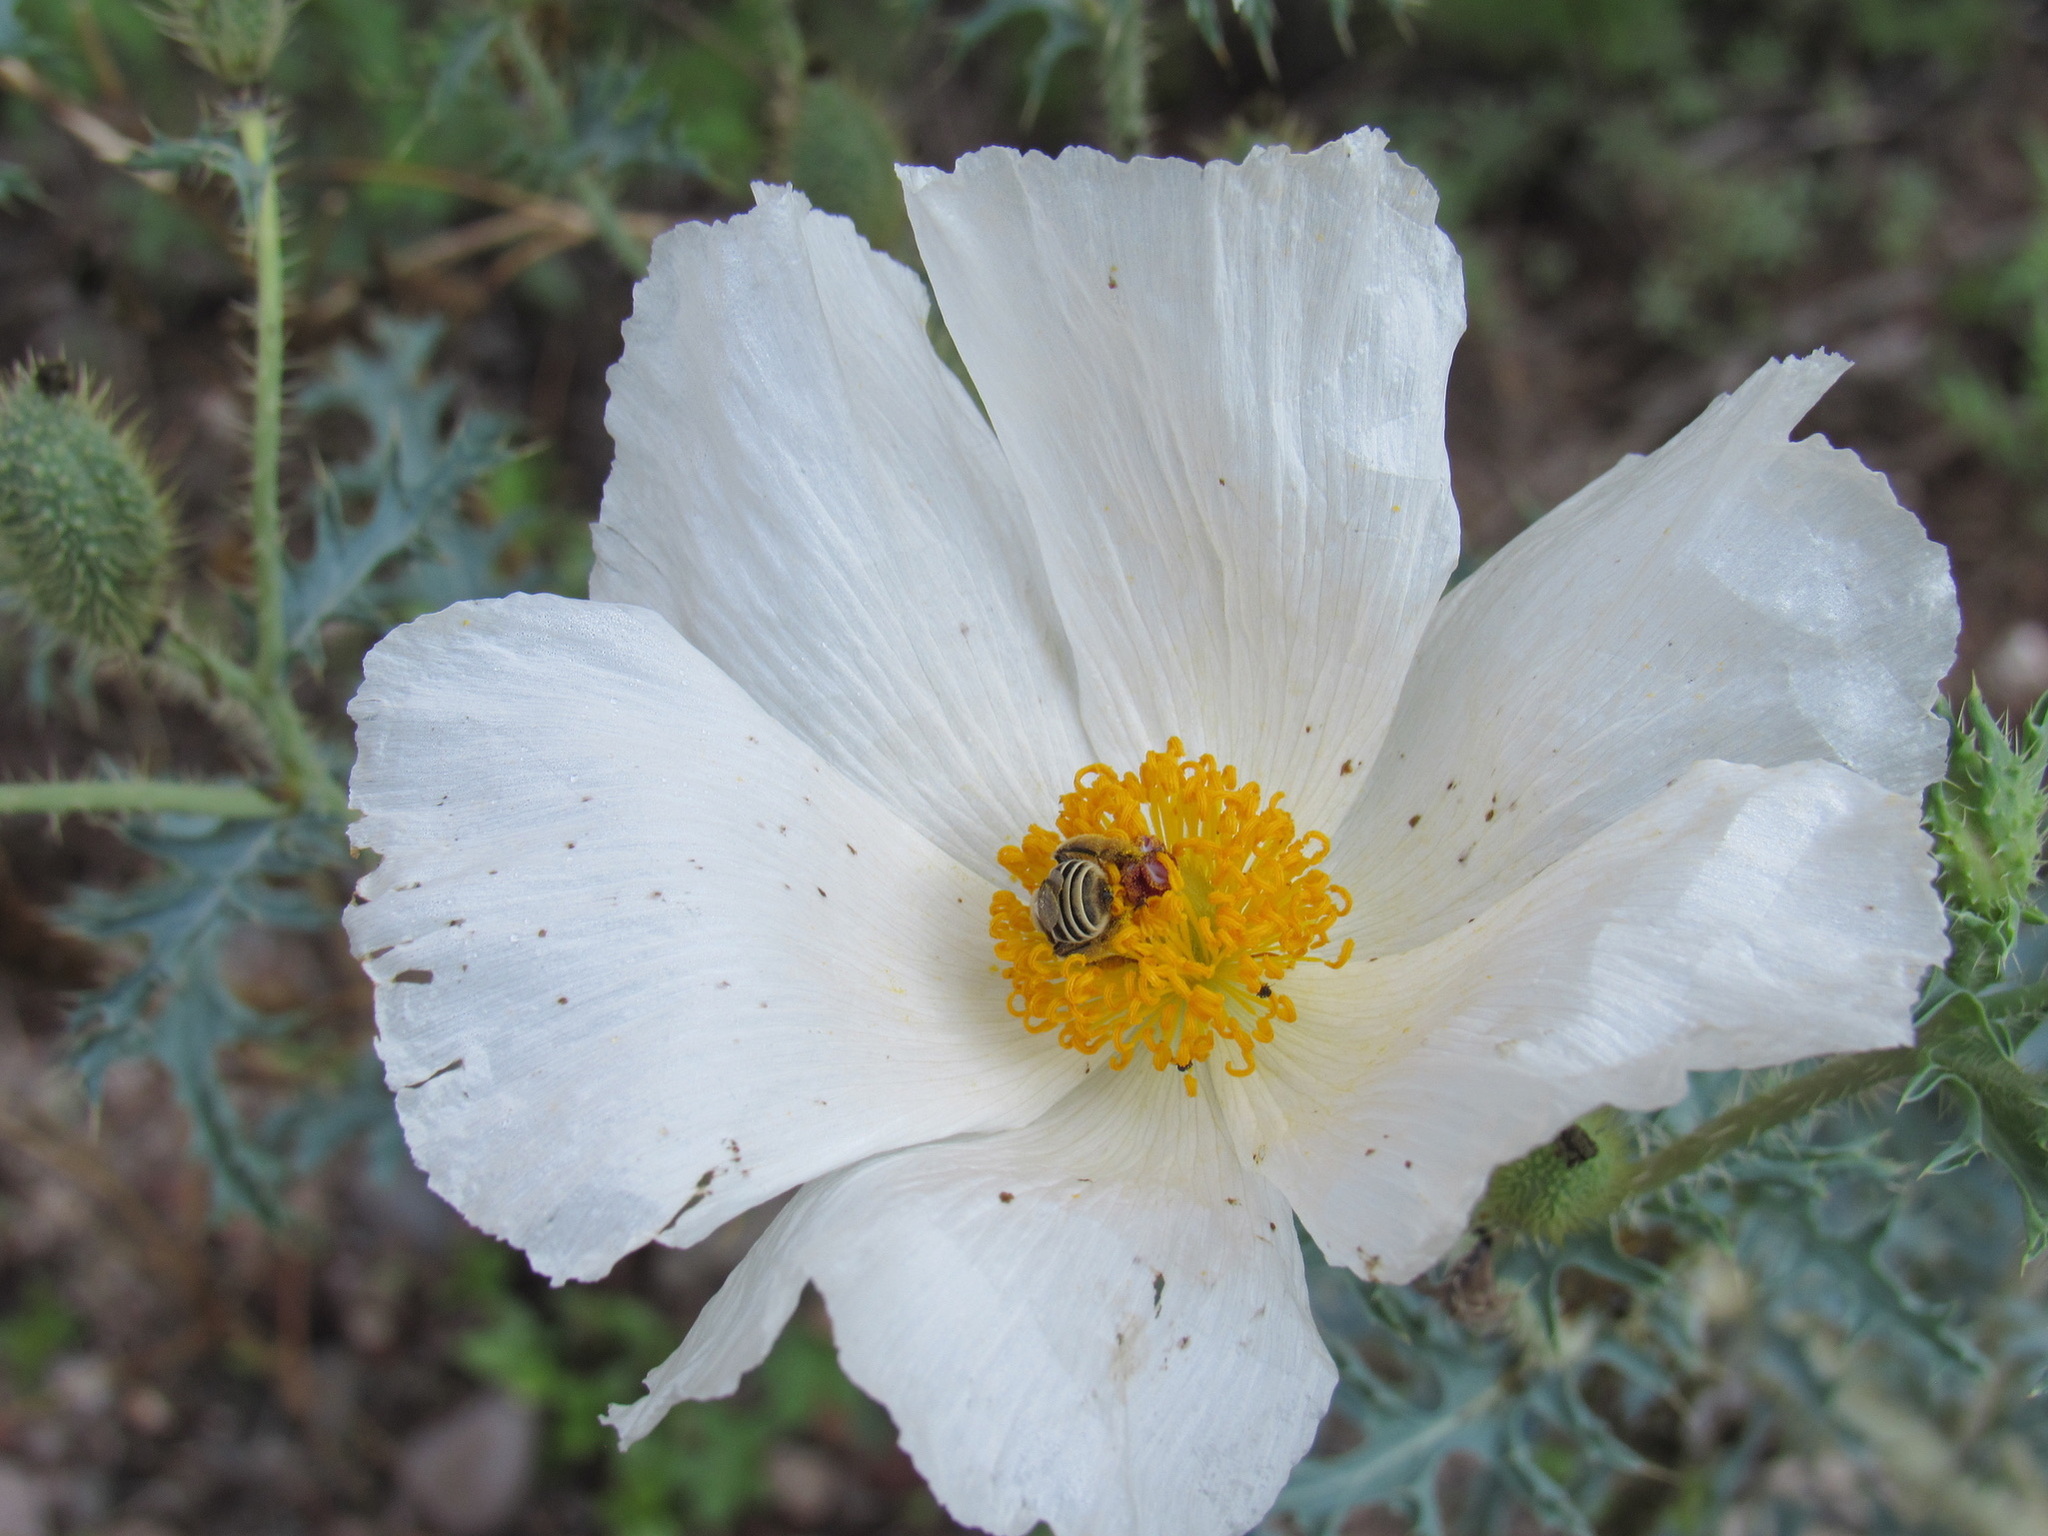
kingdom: Plantae
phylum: Tracheophyta
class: Magnoliopsida
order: Ranunculales
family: Papaveraceae
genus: Argemone
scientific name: Argemone pleiacantha
